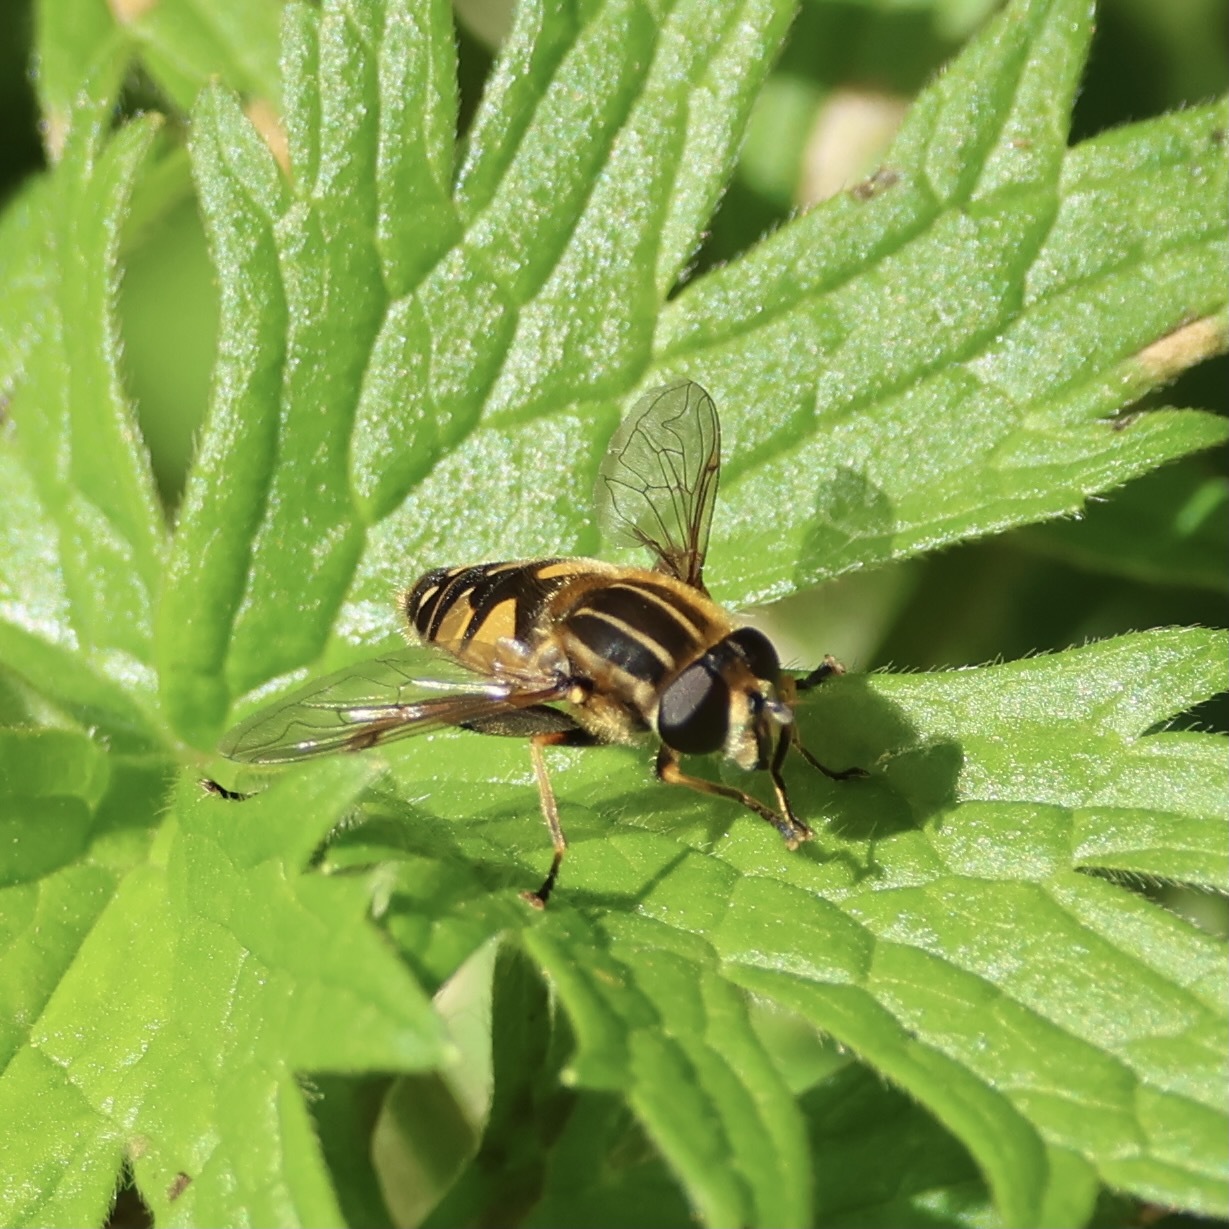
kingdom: Animalia
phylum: Arthropoda
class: Insecta
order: Diptera
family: Syrphidae
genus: Helophilus
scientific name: Helophilus pendulus
